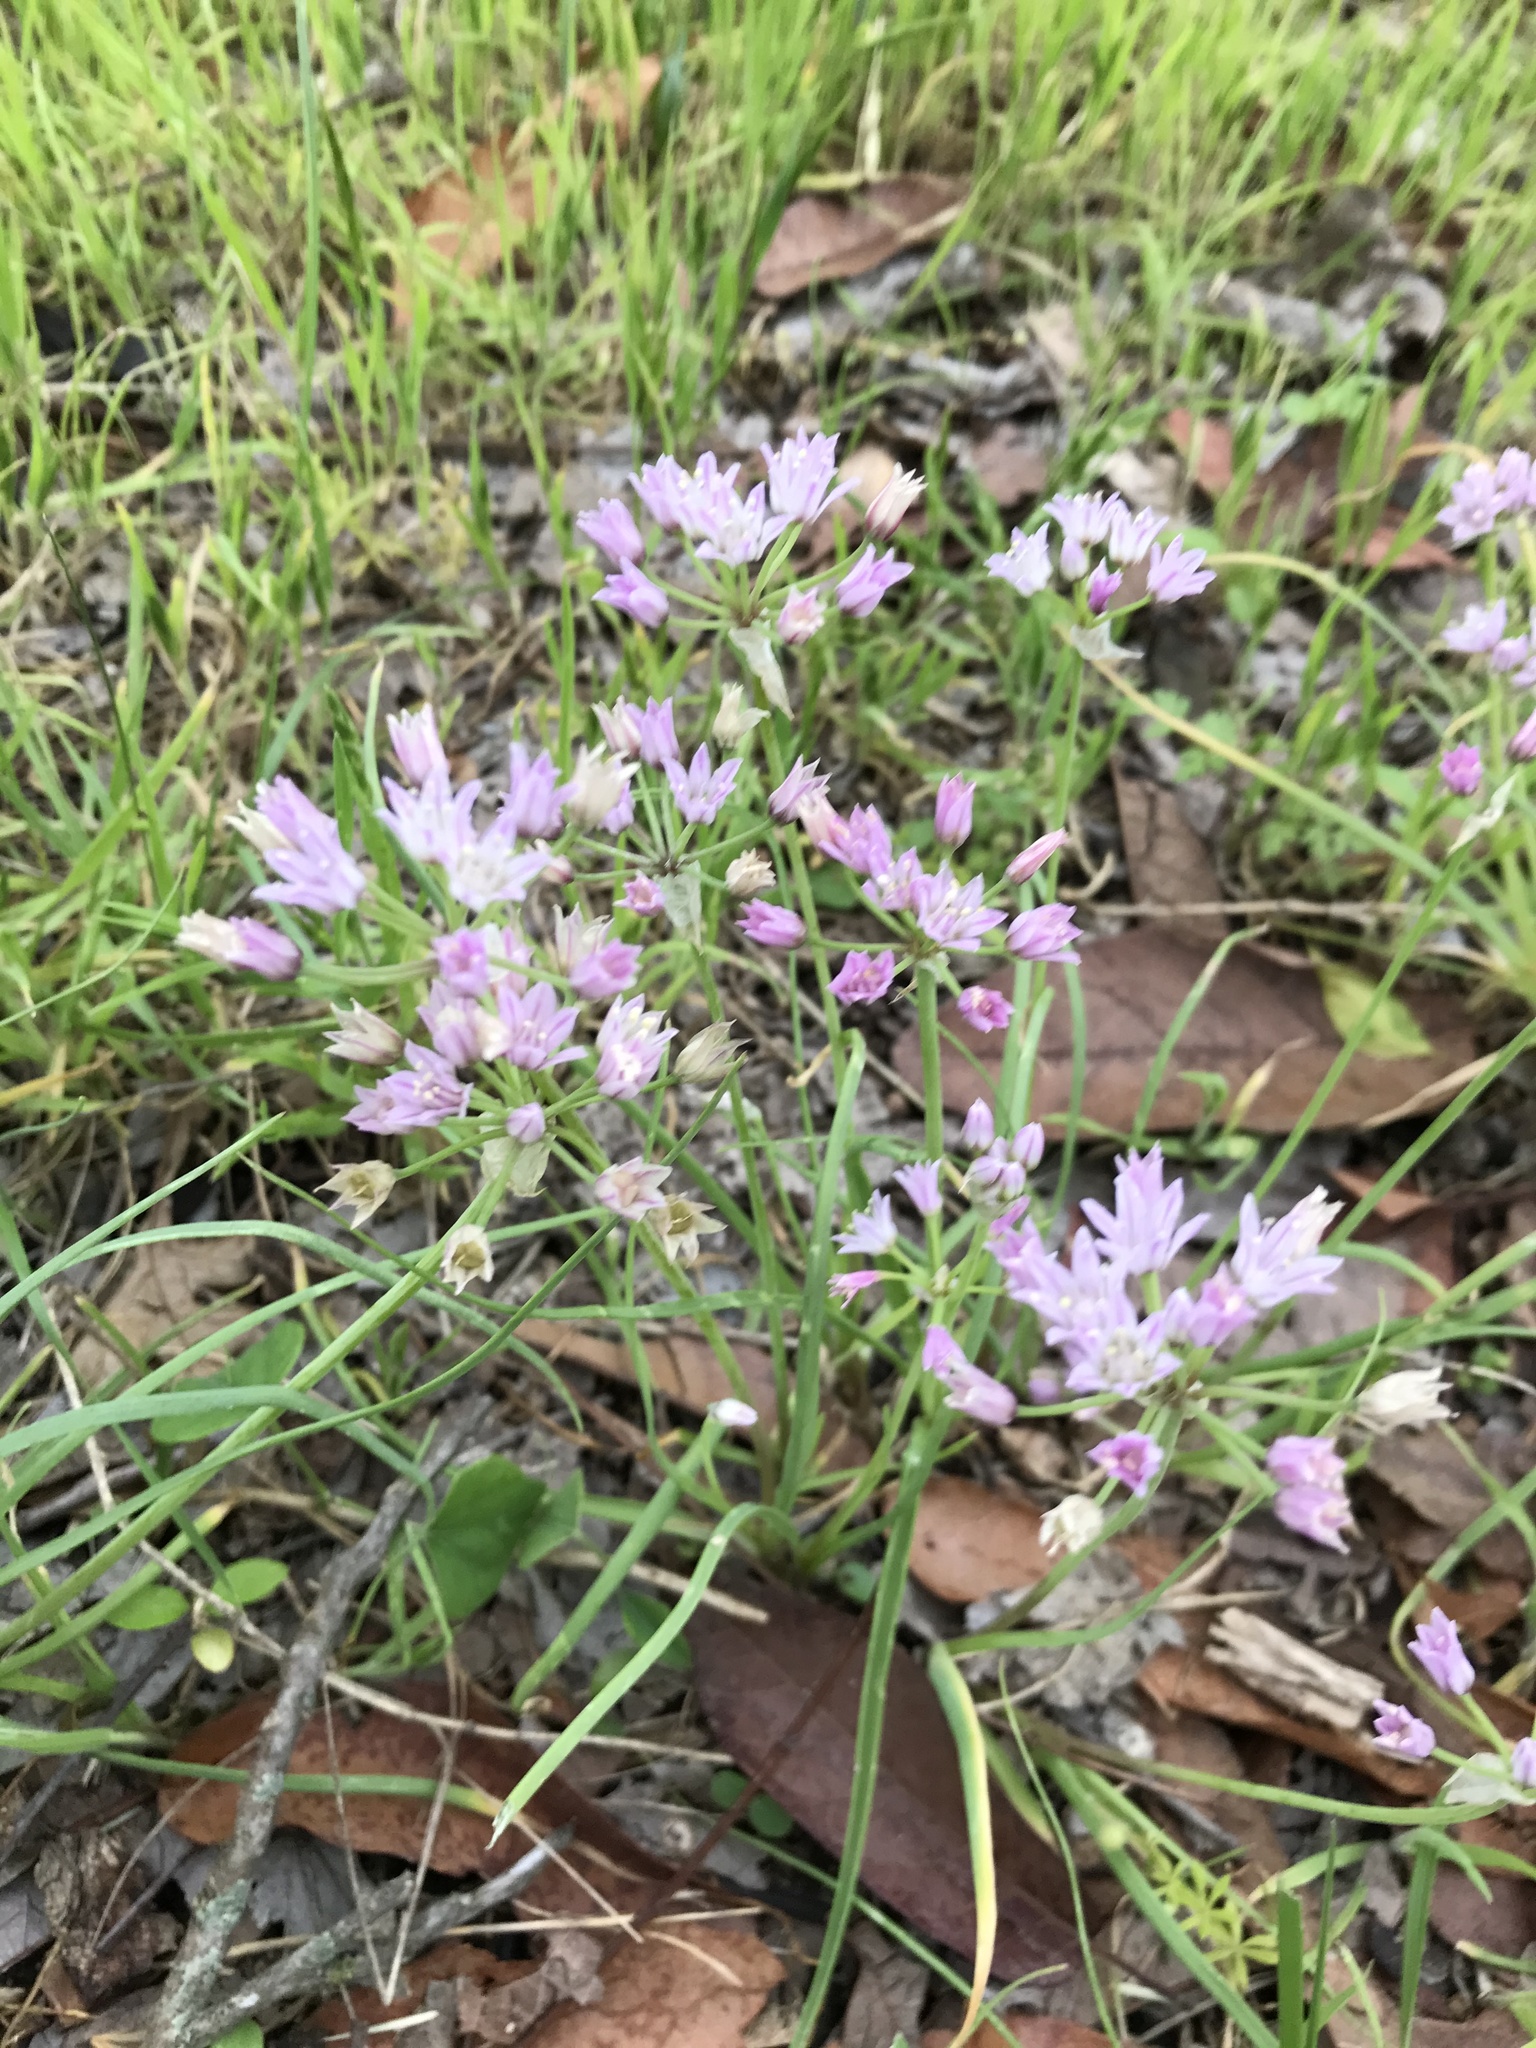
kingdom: Plantae
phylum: Tracheophyta
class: Liliopsida
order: Asparagales
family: Amaryllidaceae
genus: Allium
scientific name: Allium drummondii
